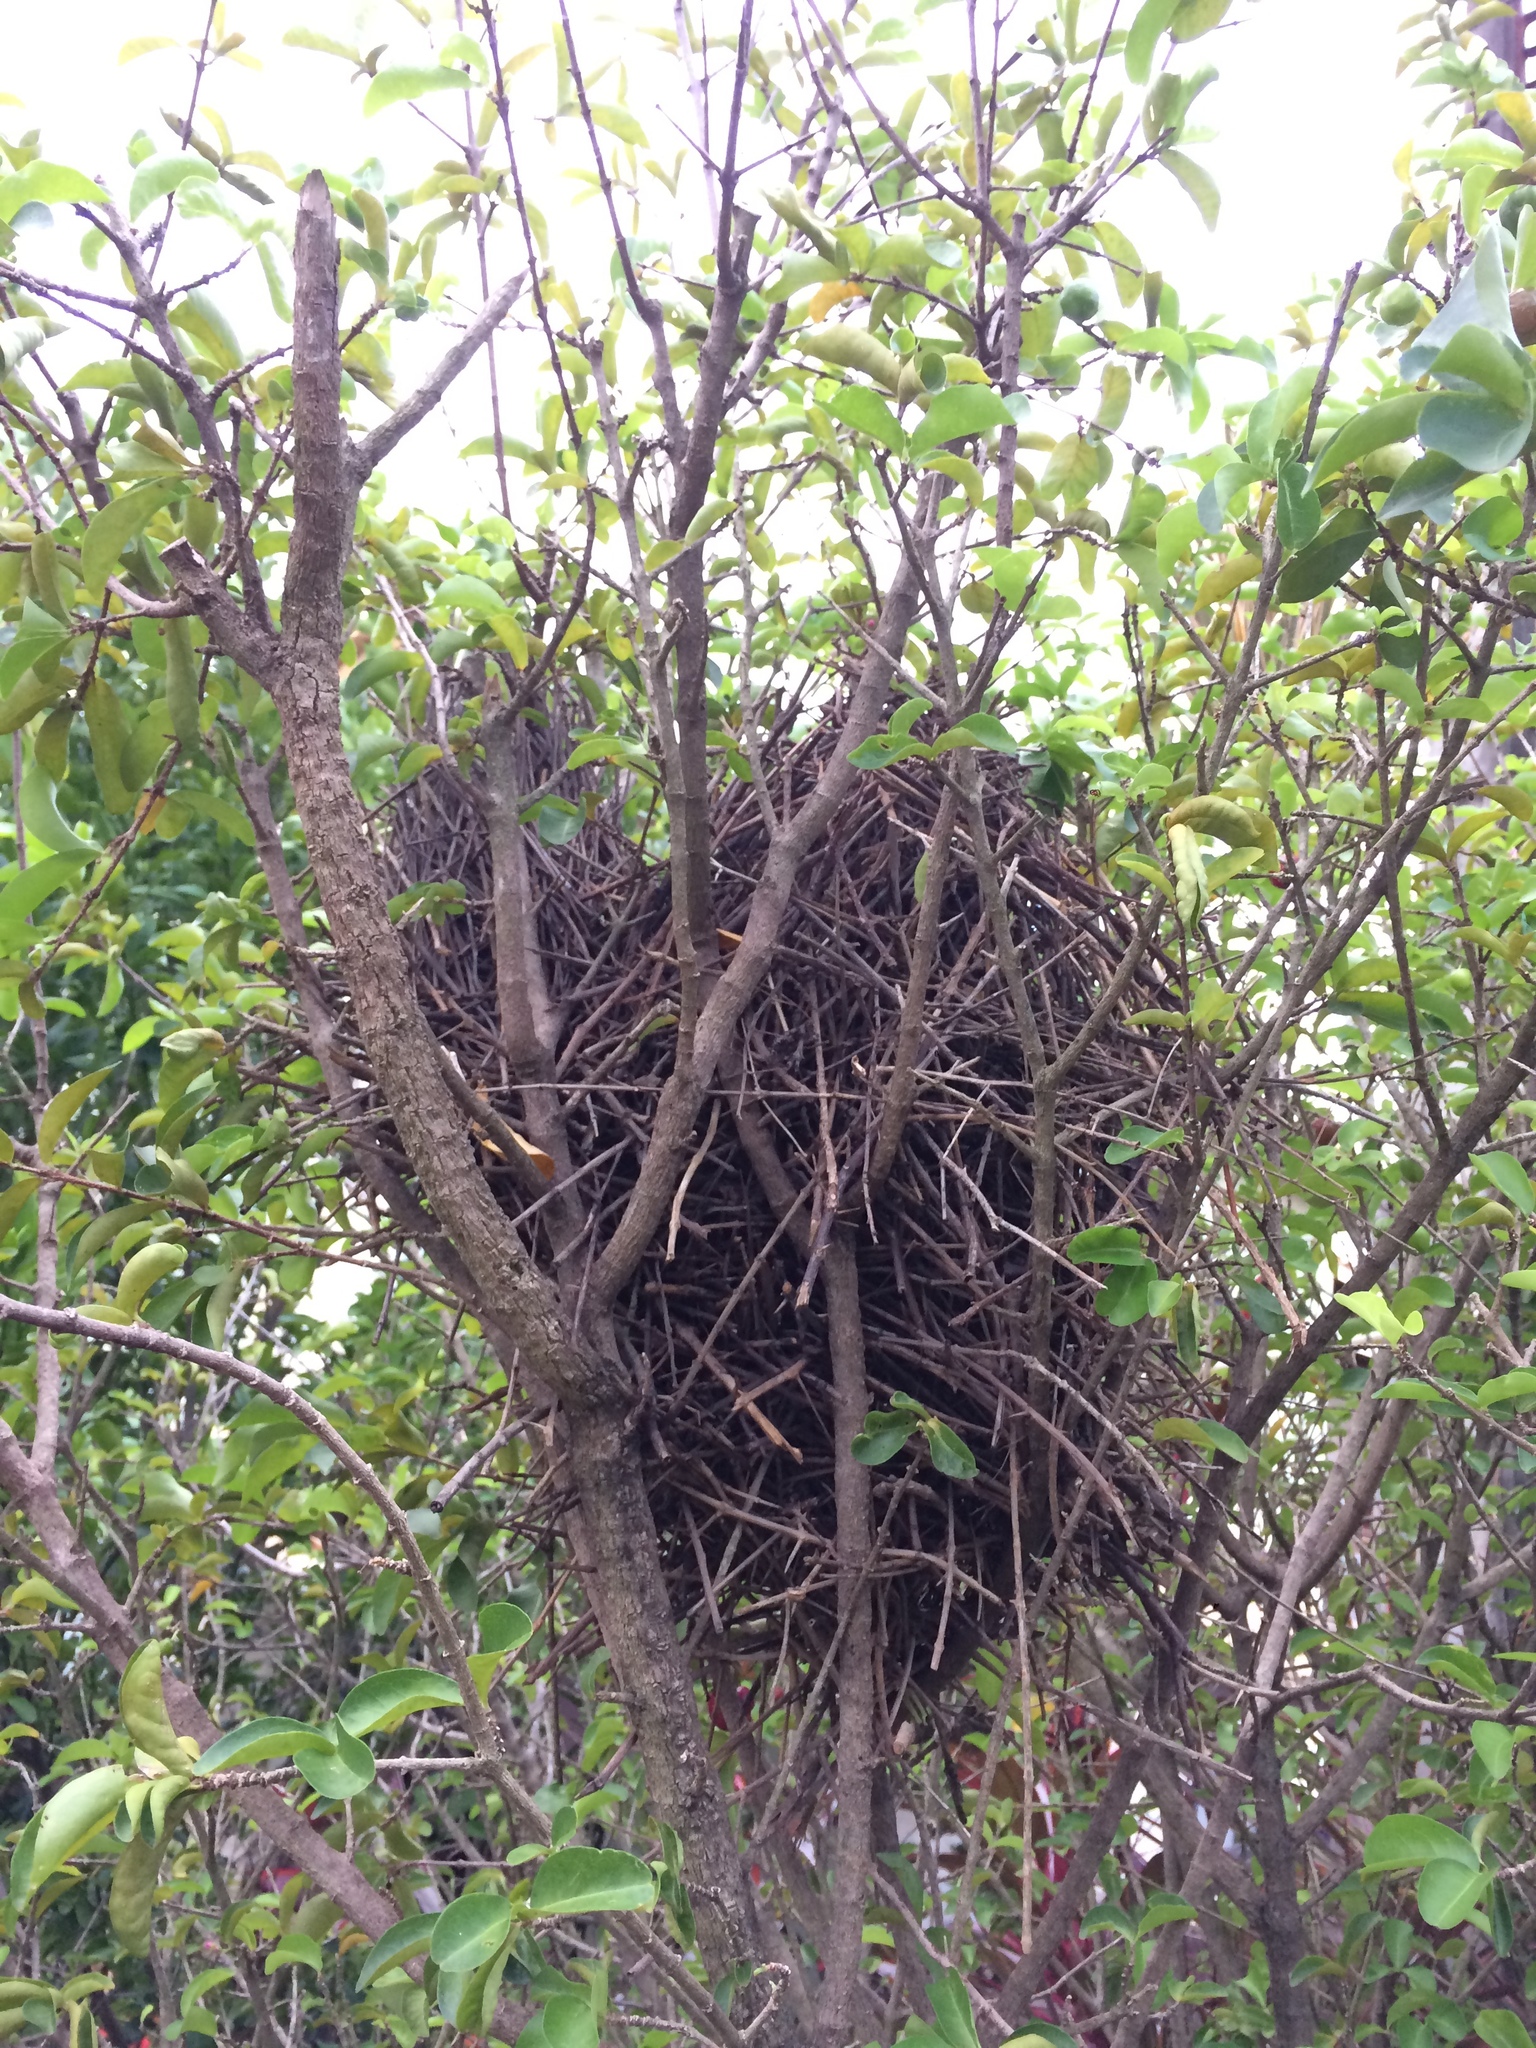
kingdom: Animalia
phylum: Chordata
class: Aves
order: Passeriformes
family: Furnariidae
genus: Certhiaxis
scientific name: Certhiaxis cinnamomeus
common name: Yellow-chinned spinetail
